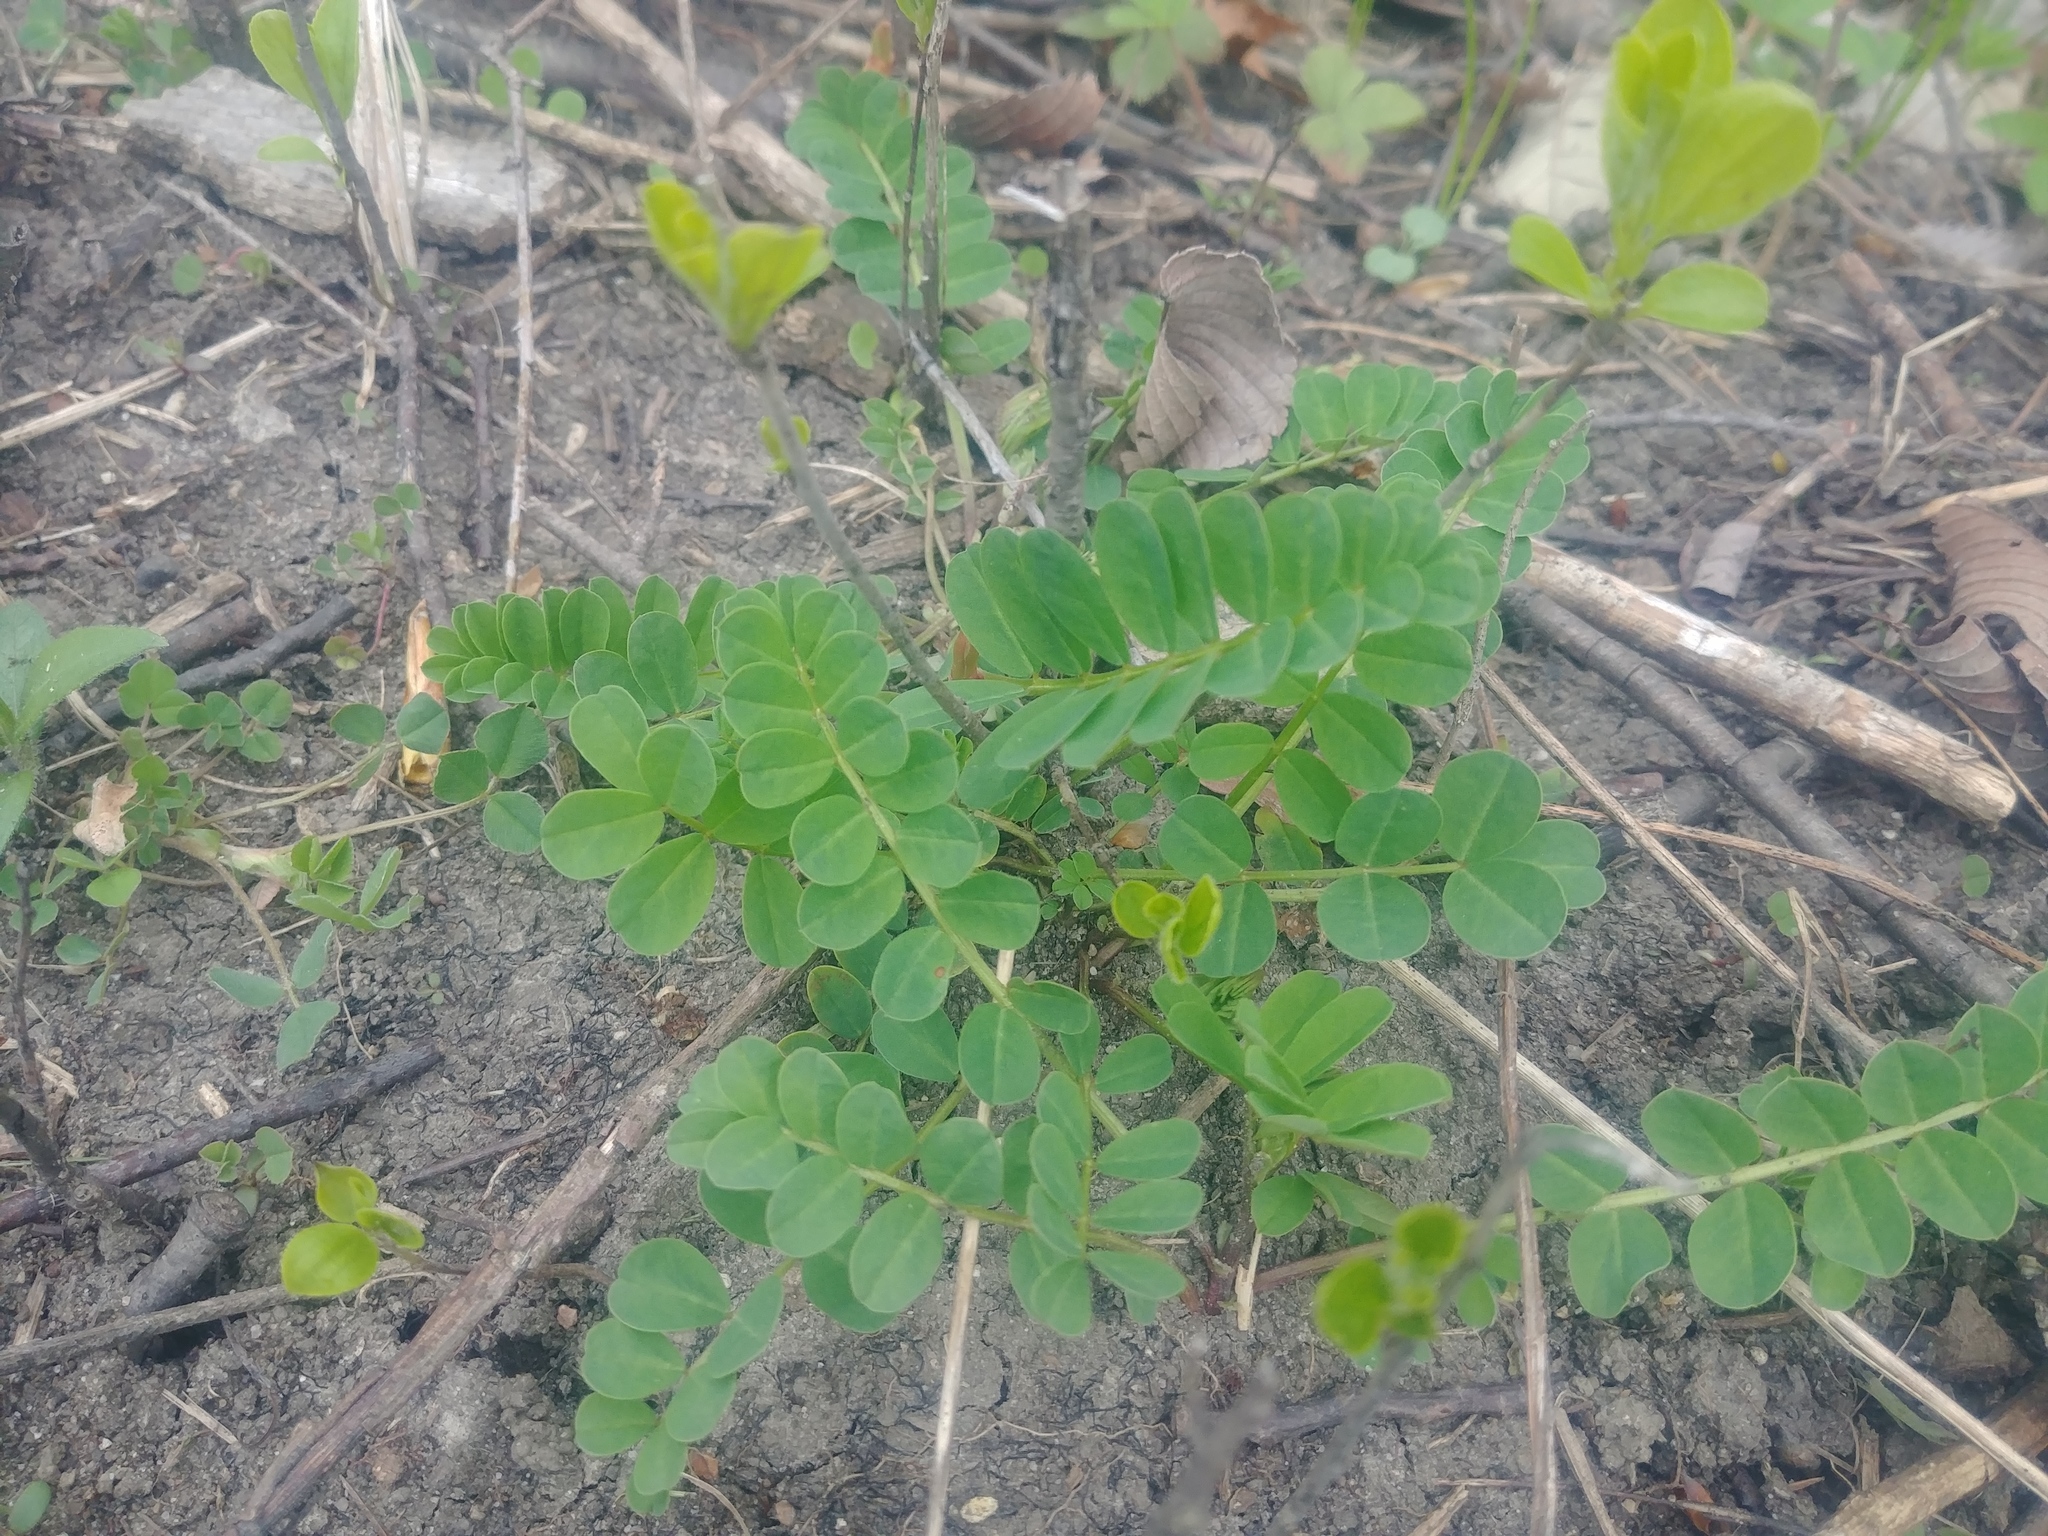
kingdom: Plantae
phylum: Tracheophyta
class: Magnoliopsida
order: Fabales
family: Fabaceae
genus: Coronilla
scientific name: Coronilla varia
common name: Crownvetch
